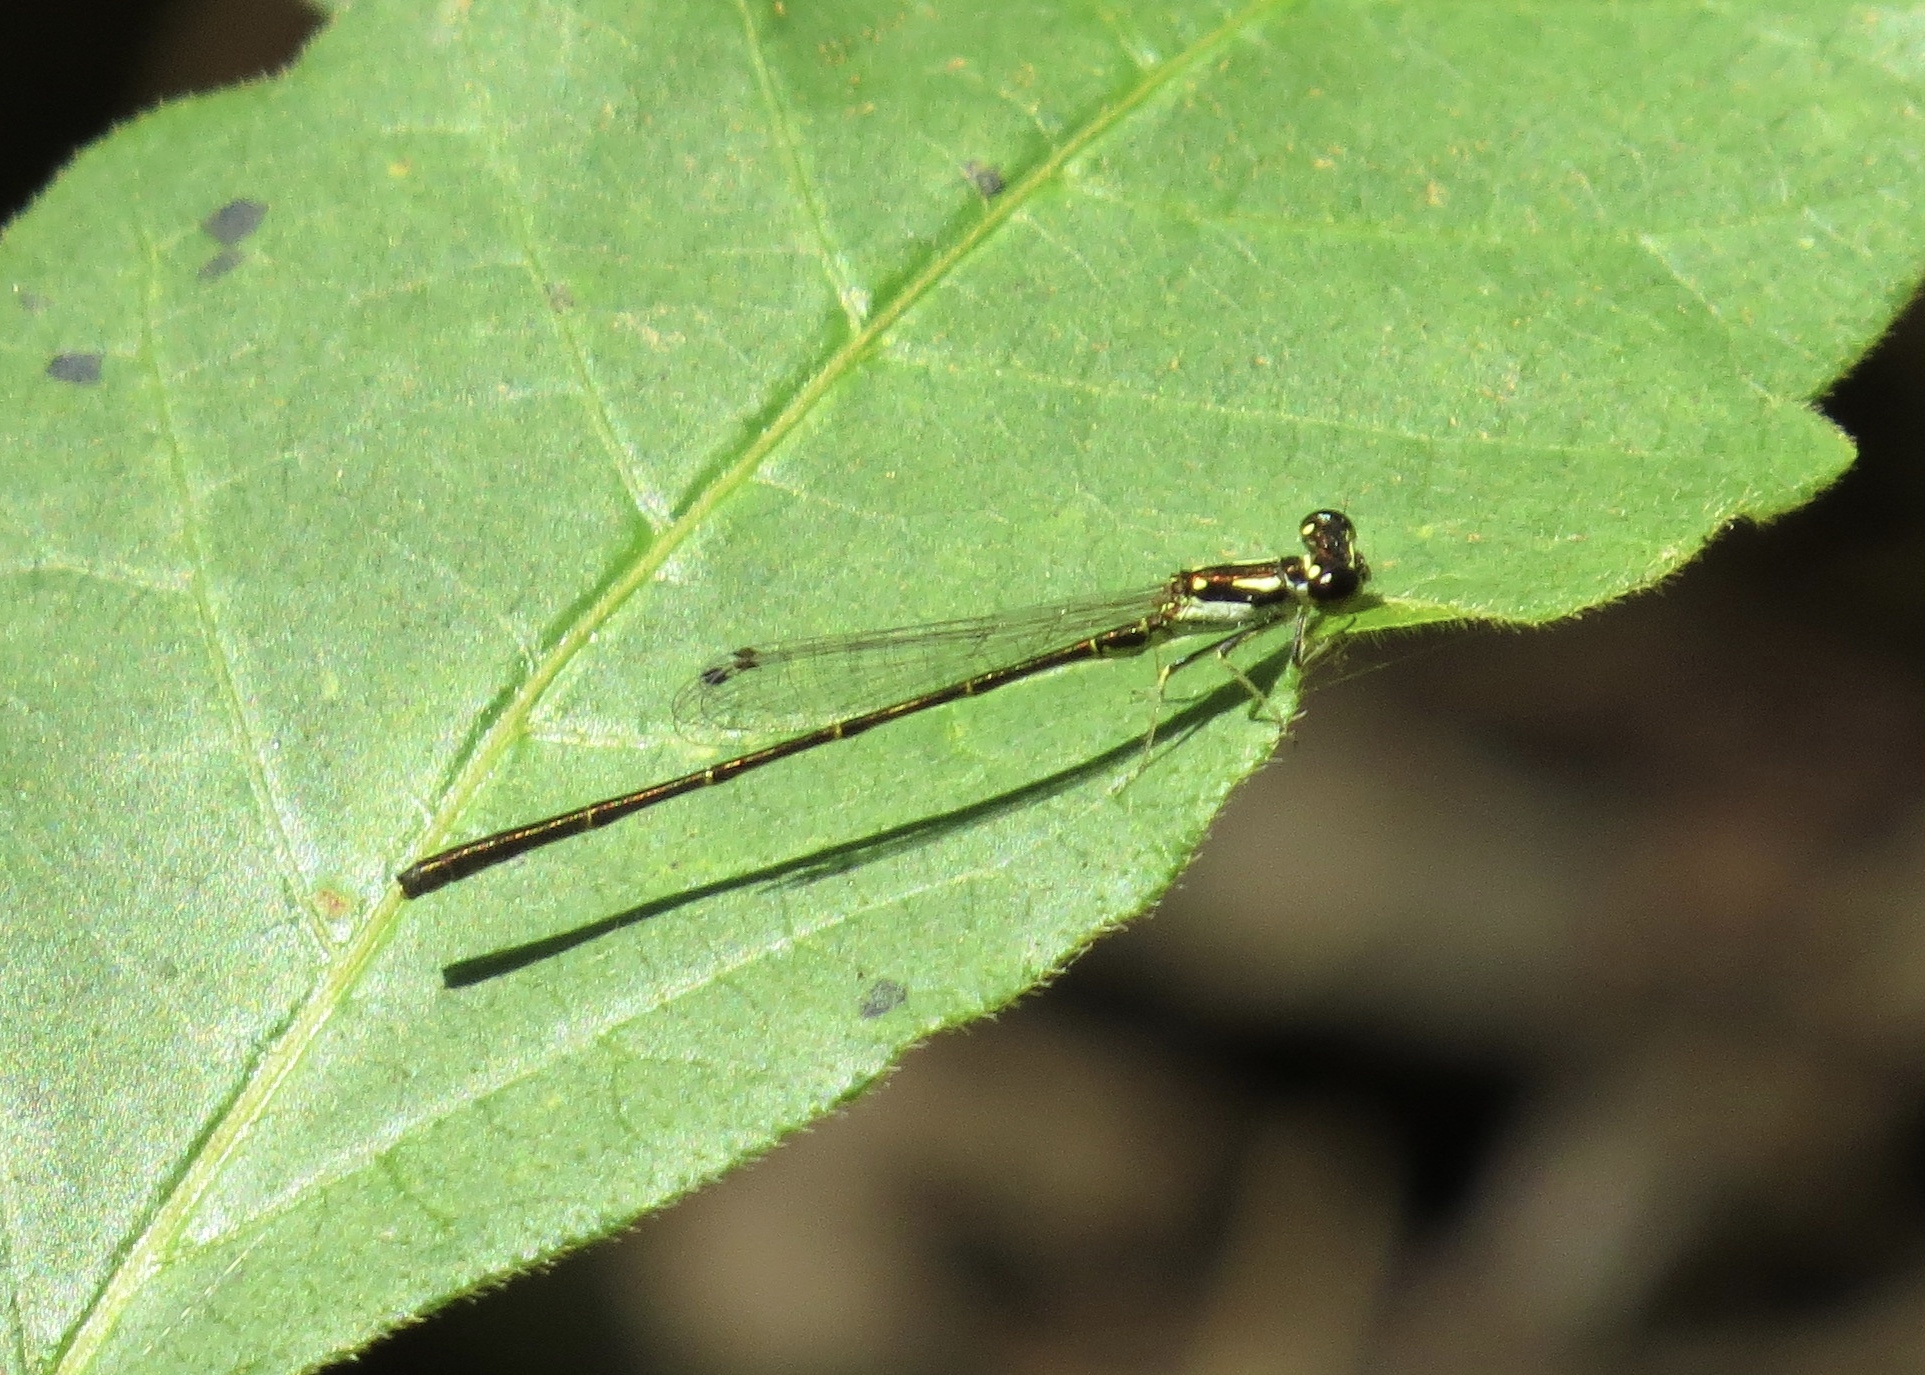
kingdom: Animalia
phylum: Arthropoda
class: Insecta
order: Odonata
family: Coenagrionidae
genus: Ischnura
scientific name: Ischnura posita
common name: Fragile forktail
